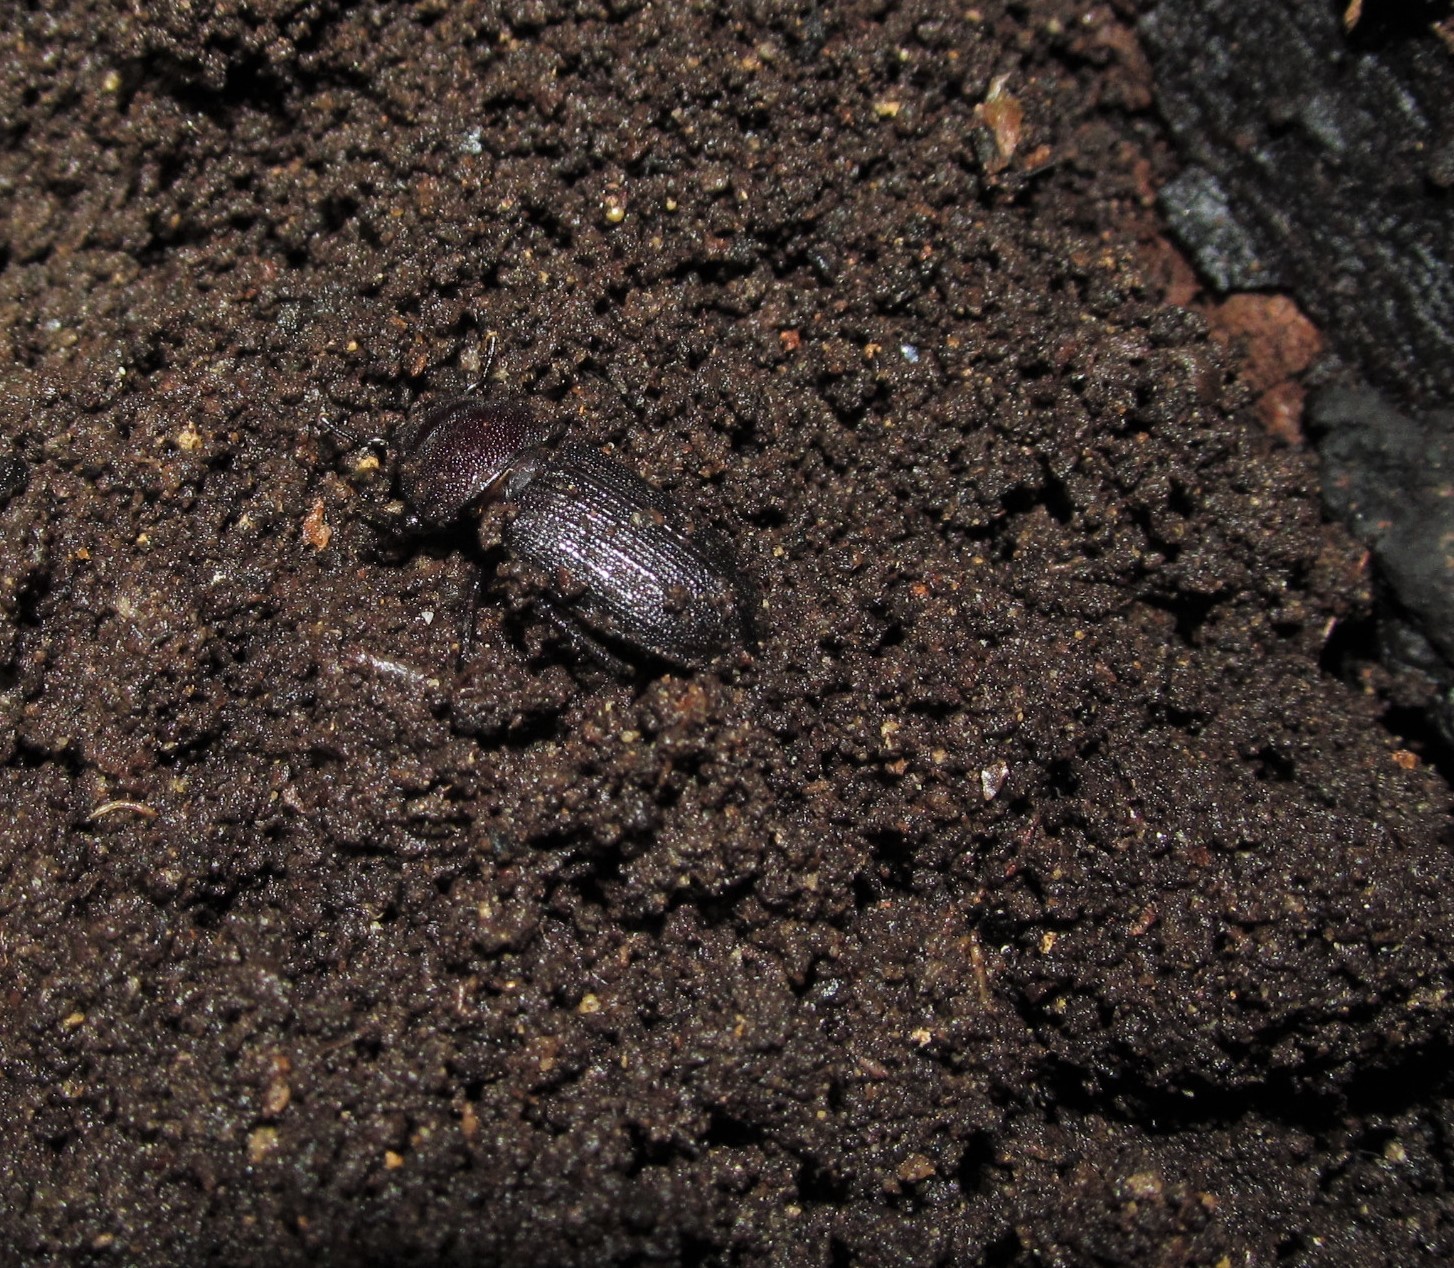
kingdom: Animalia
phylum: Arthropoda
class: Insecta
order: Coleoptera
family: Lucanidae
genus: Dorcus
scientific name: Dorcus parallelus
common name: Antelope beetle
